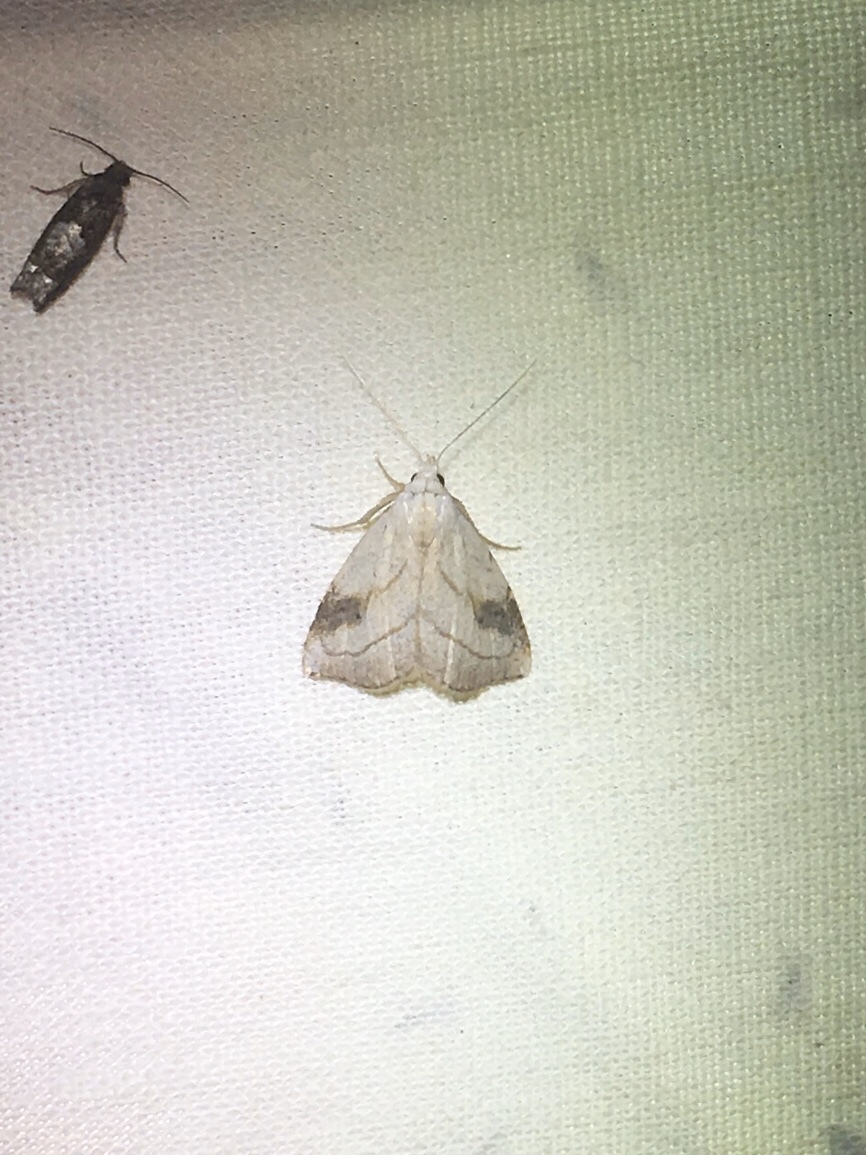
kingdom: Animalia
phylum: Arthropoda
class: Insecta
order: Lepidoptera
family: Erebidae
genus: Rivula
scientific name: Rivula propinqualis
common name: Spotted grass moth
